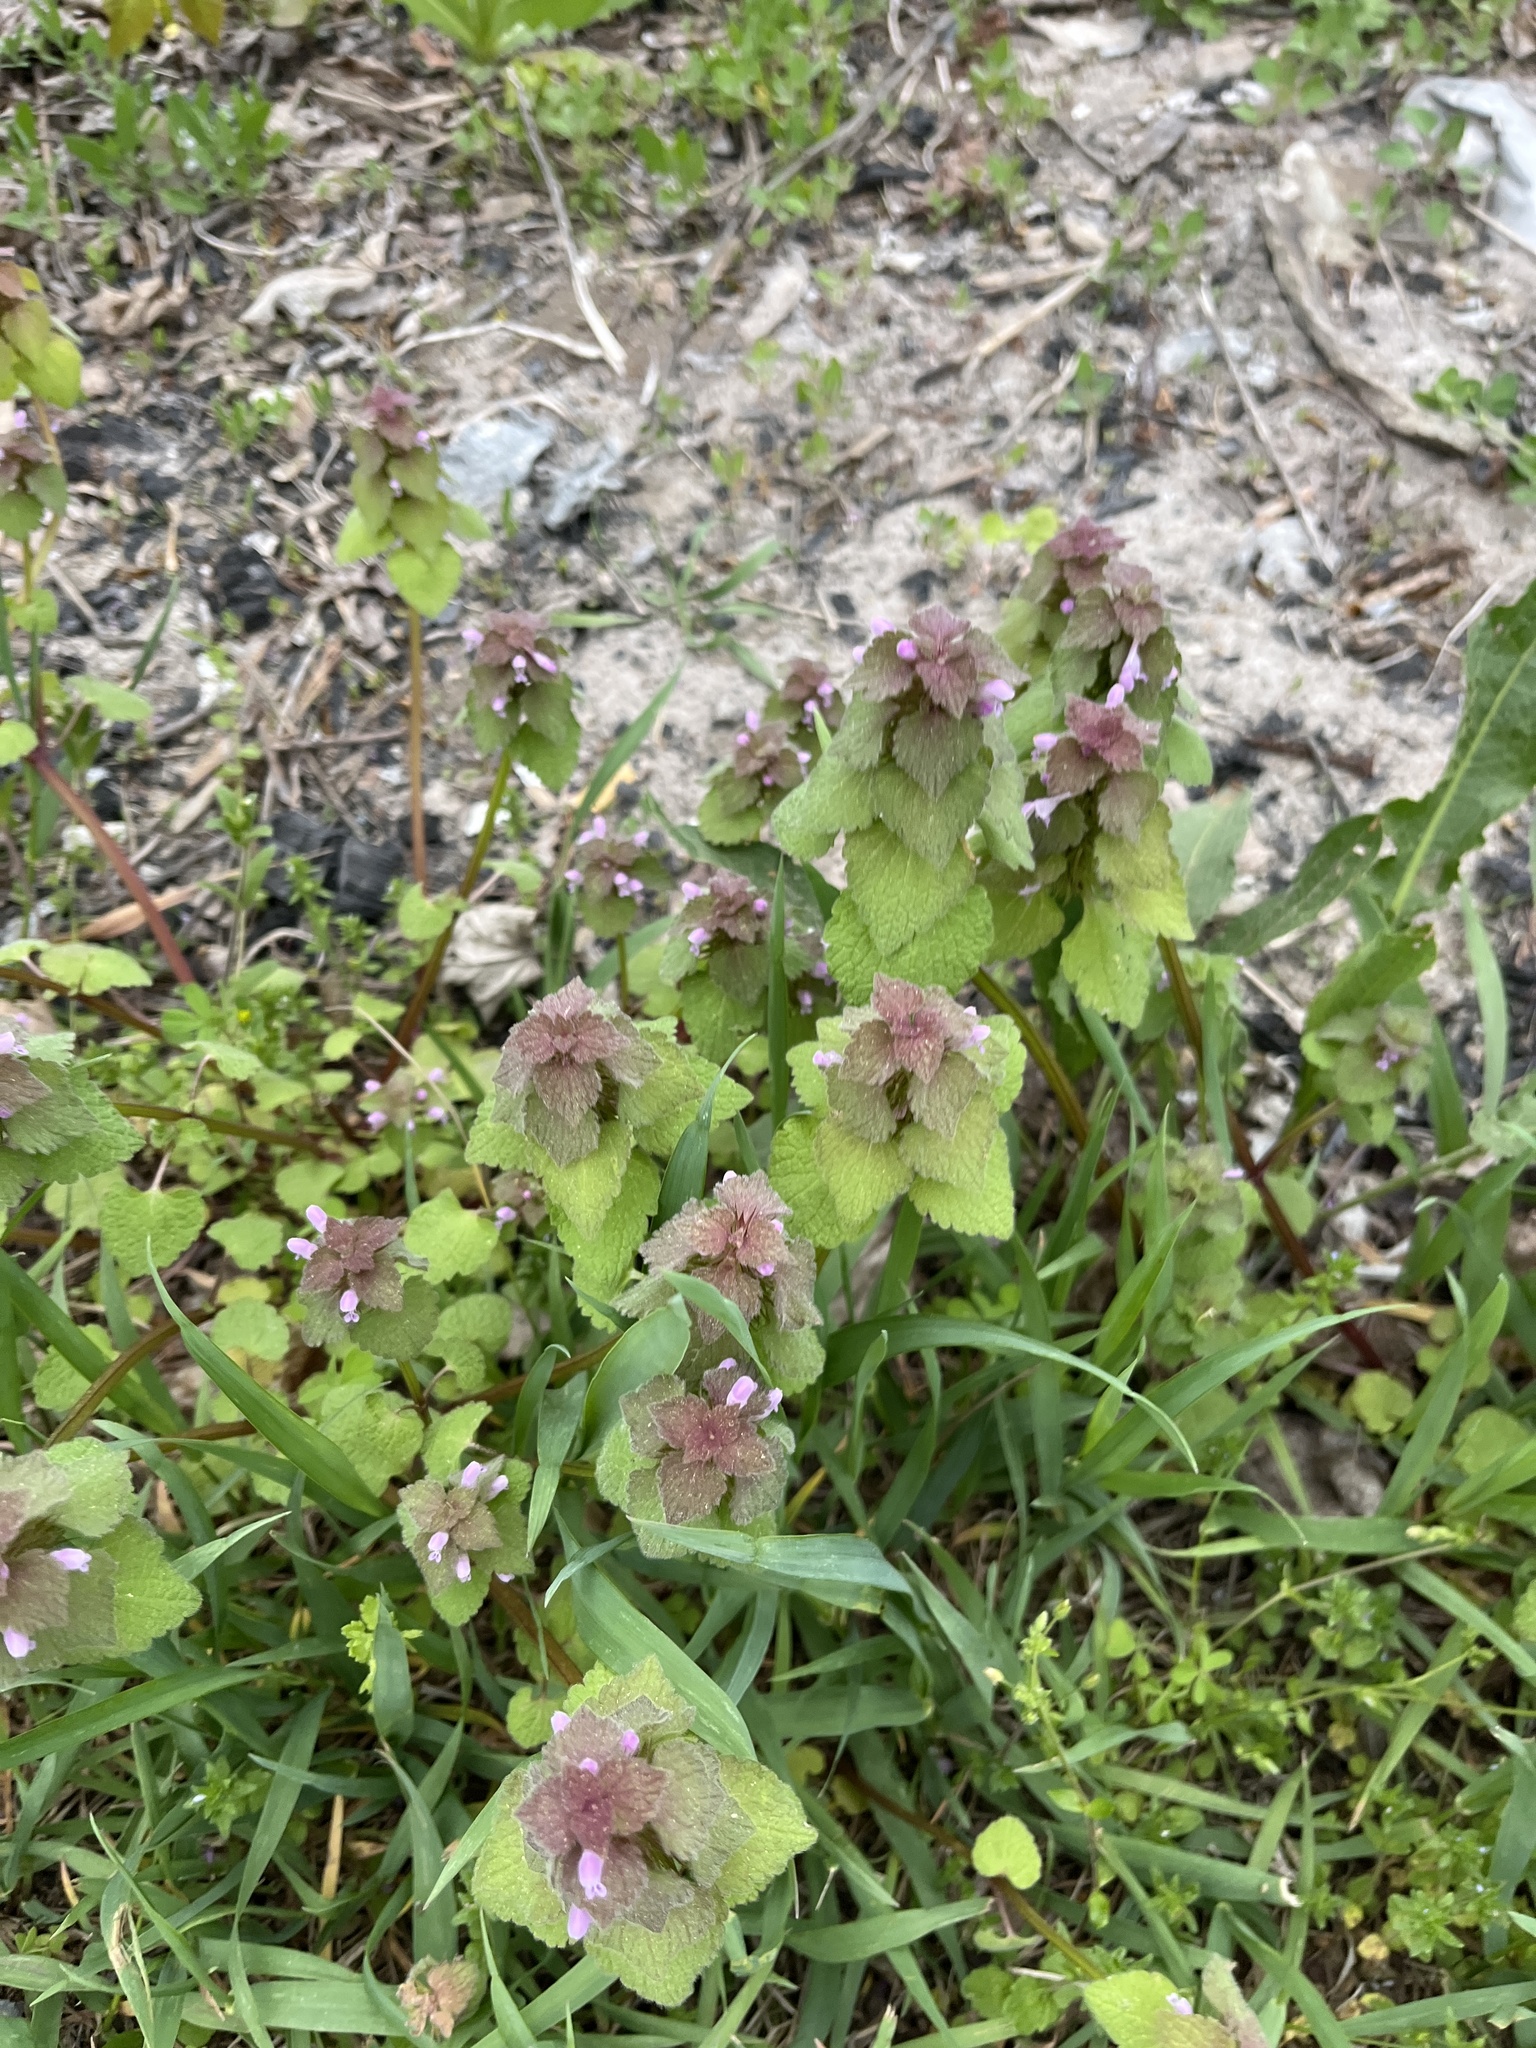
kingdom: Plantae
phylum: Tracheophyta
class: Magnoliopsida
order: Lamiales
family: Lamiaceae
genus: Lamium
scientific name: Lamium purpureum
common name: Red dead-nettle
